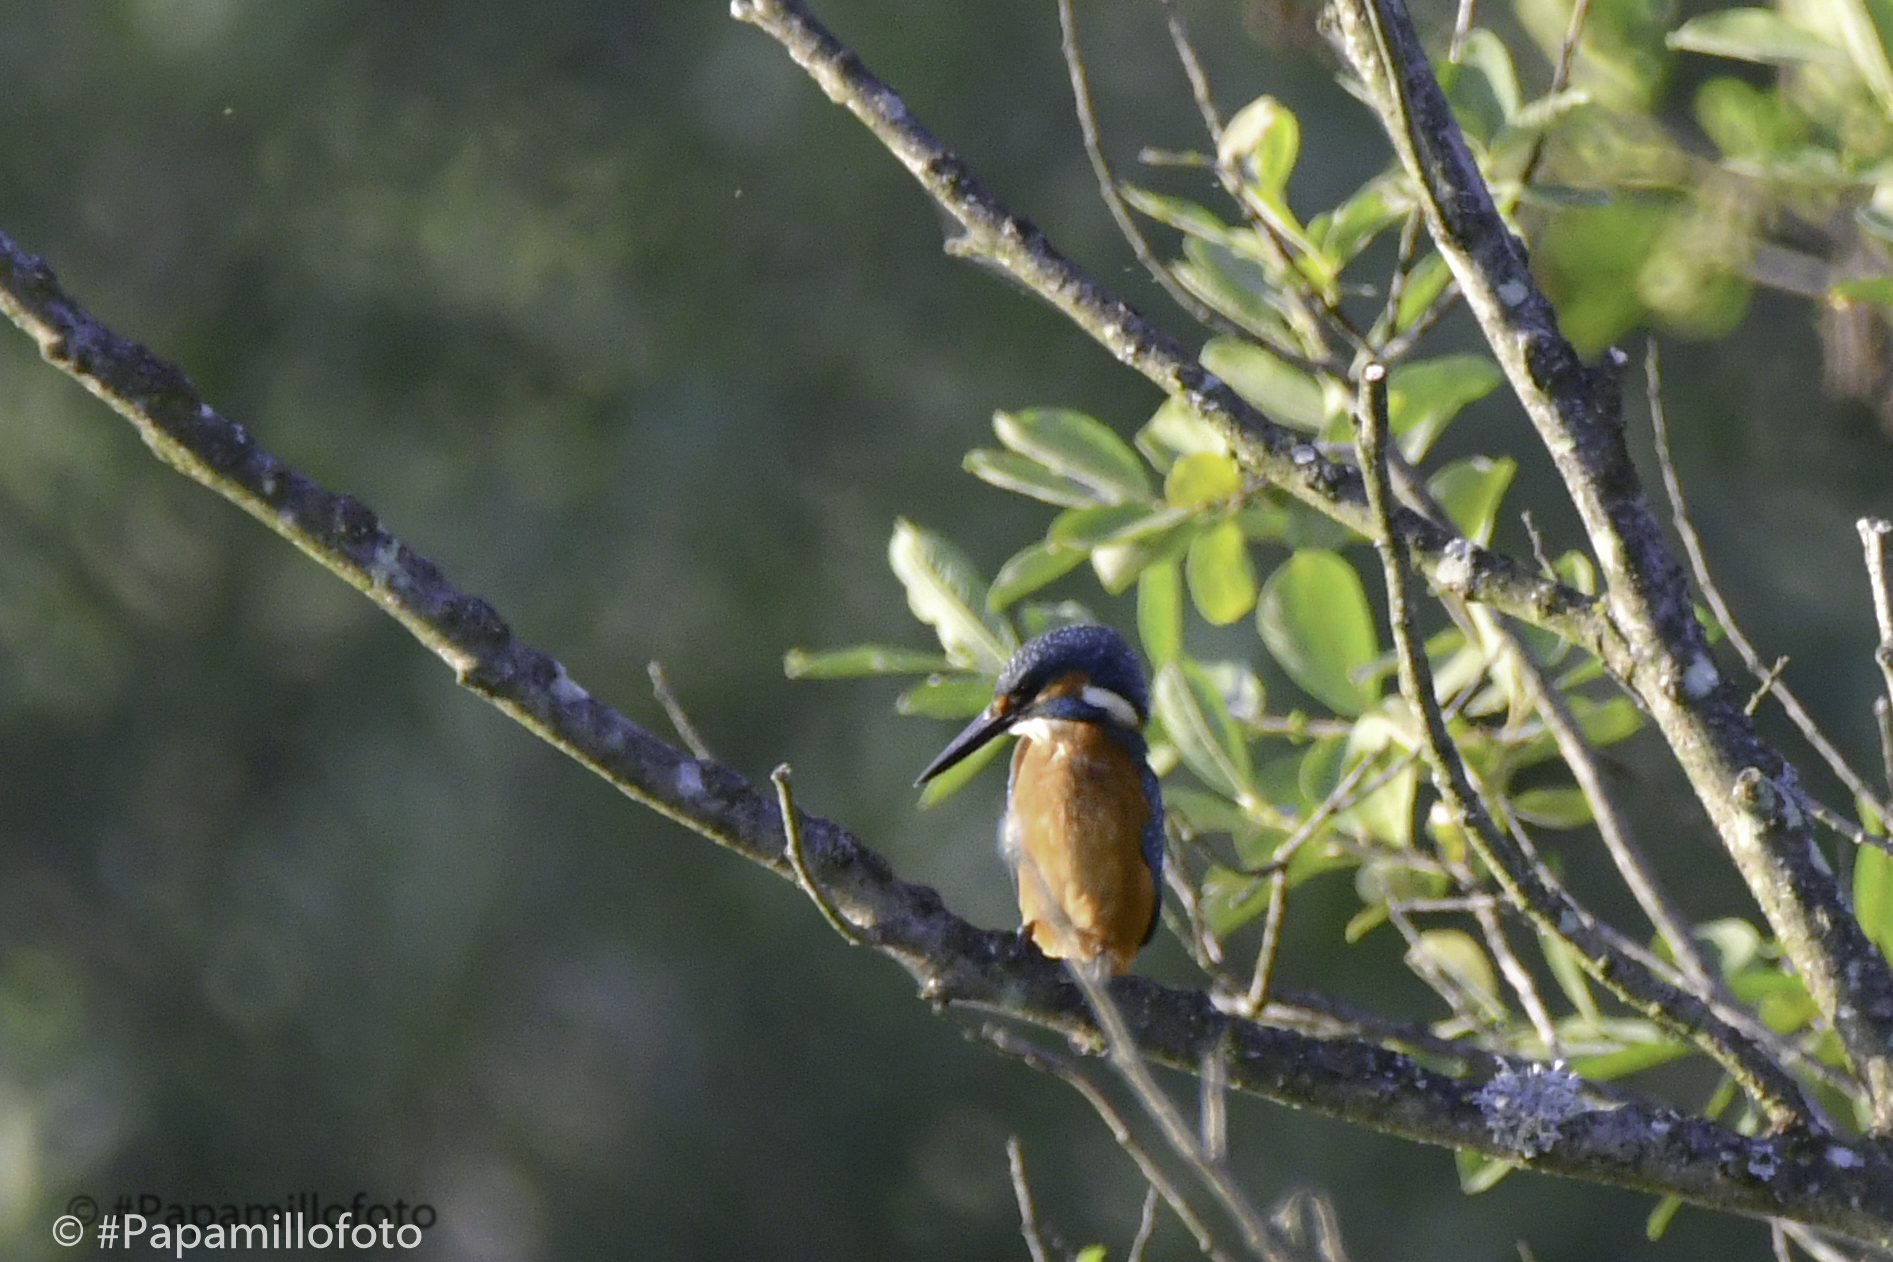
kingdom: Animalia
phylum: Chordata
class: Aves
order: Coraciiformes
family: Alcedinidae
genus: Alcedo
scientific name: Alcedo atthis
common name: Common kingfisher
